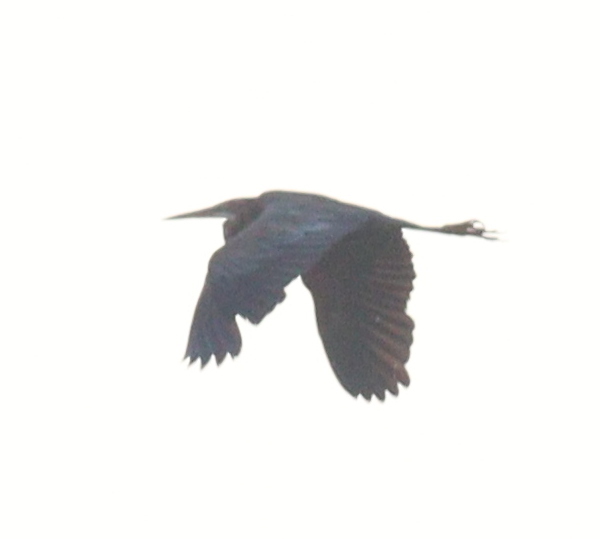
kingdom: Animalia
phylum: Chordata
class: Aves
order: Pelecaniformes
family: Ardeidae
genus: Ardea
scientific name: Ardea purpurea
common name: Purple heron
